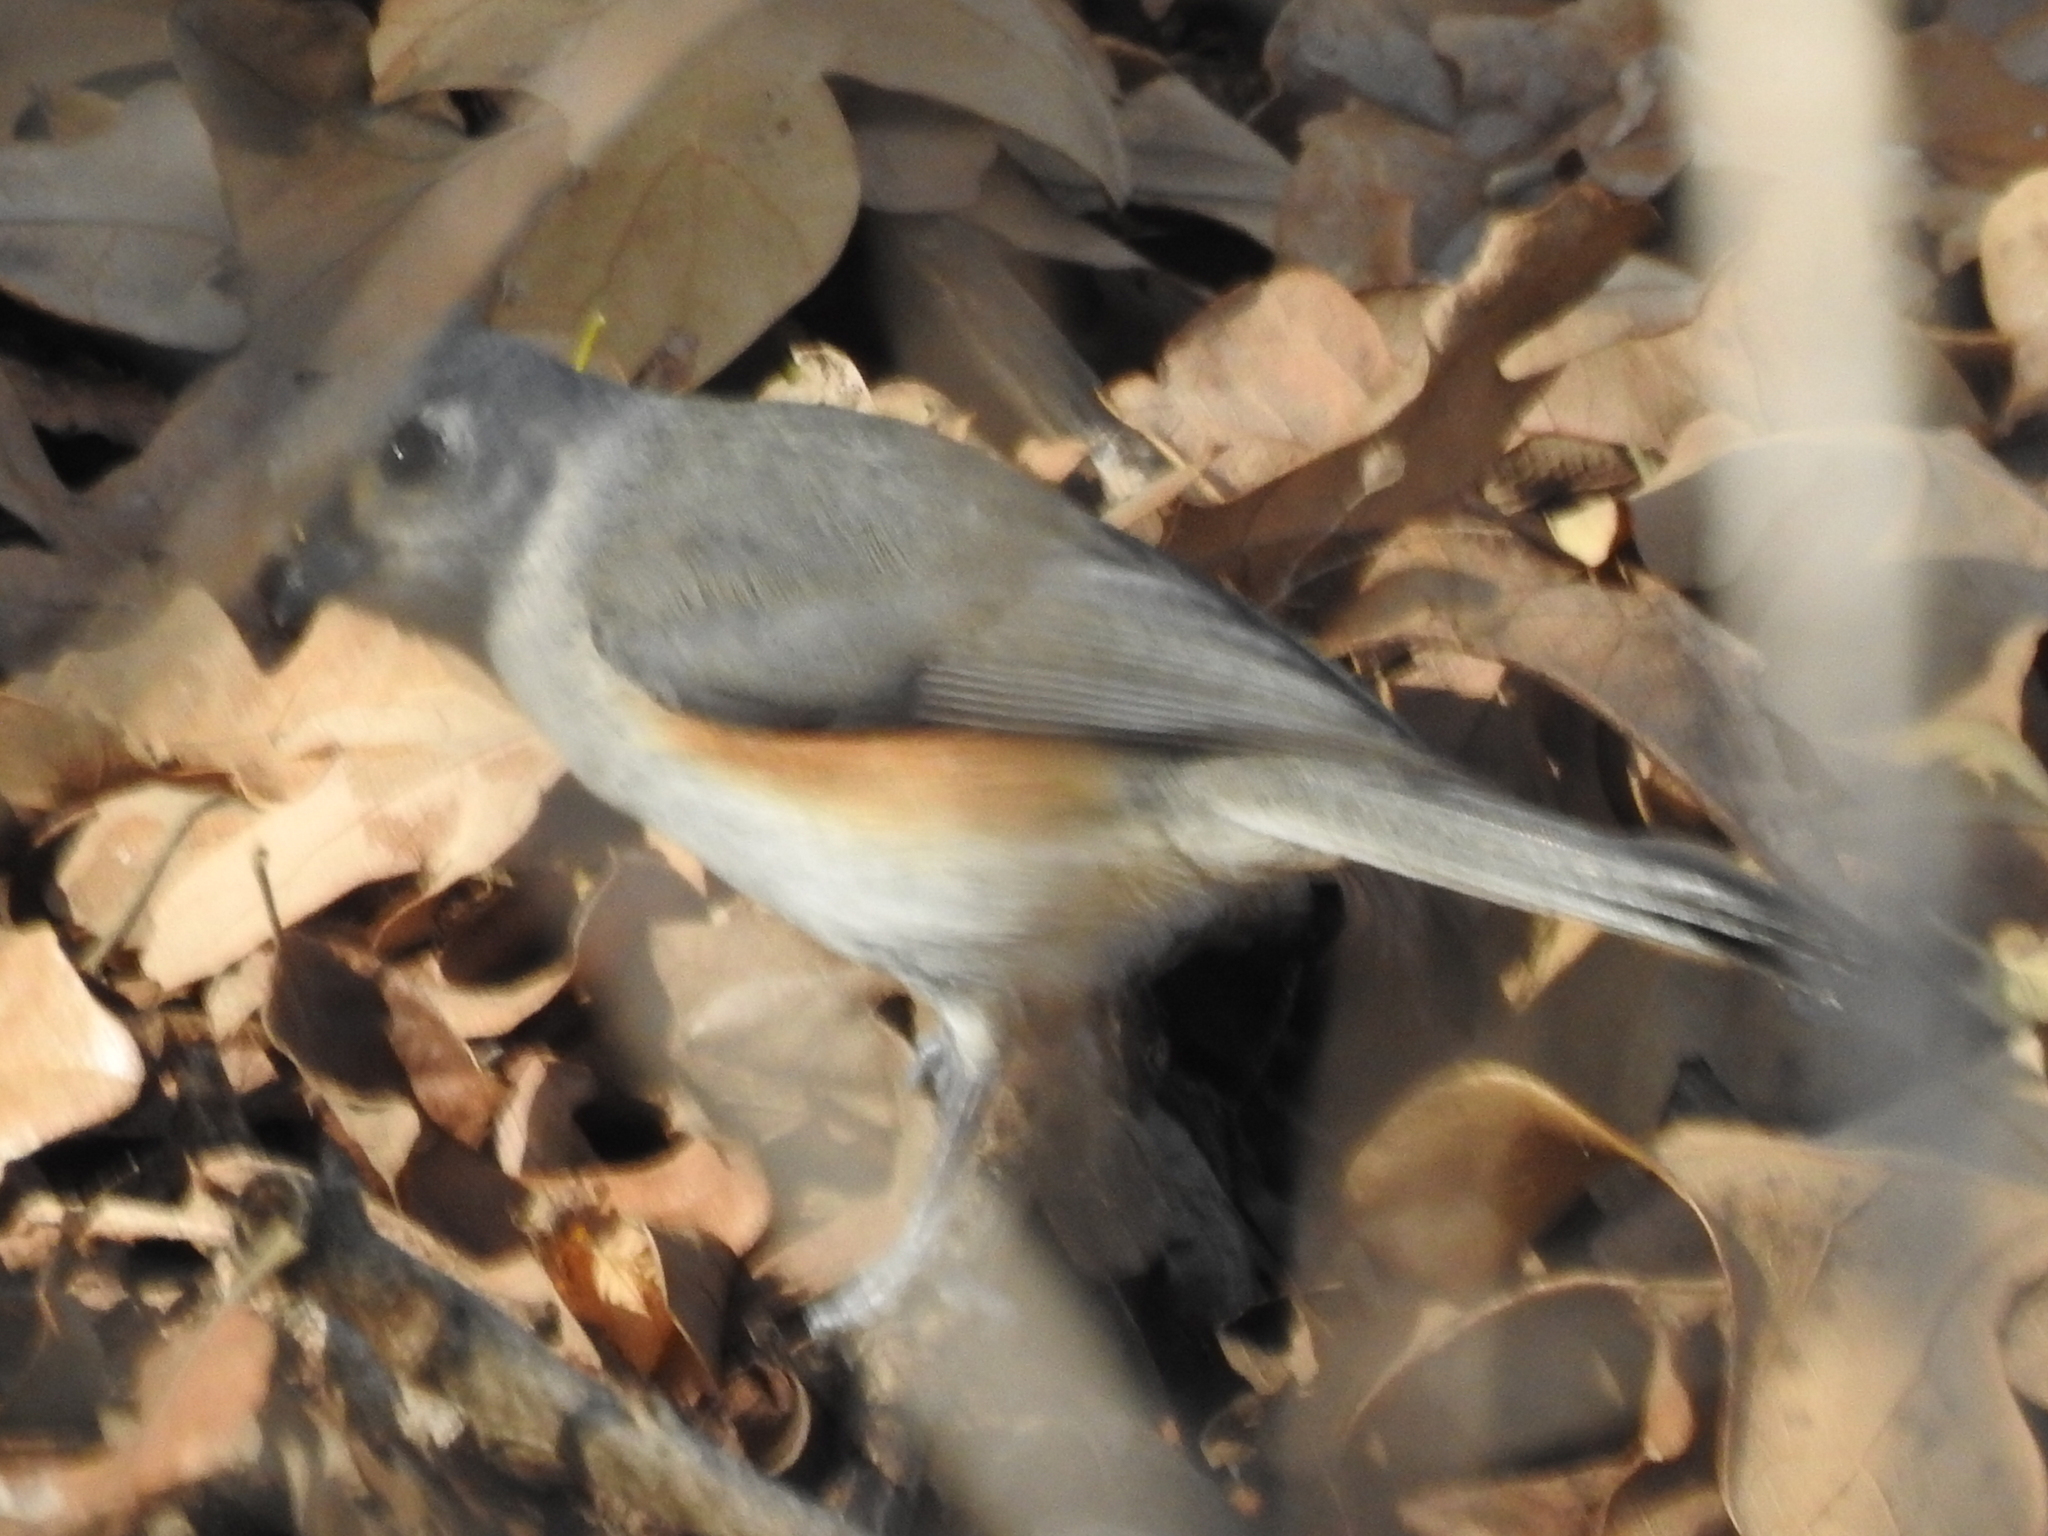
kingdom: Animalia
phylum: Chordata
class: Aves
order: Passeriformes
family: Paridae
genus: Baeolophus
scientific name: Baeolophus bicolor
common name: Tufted titmouse
